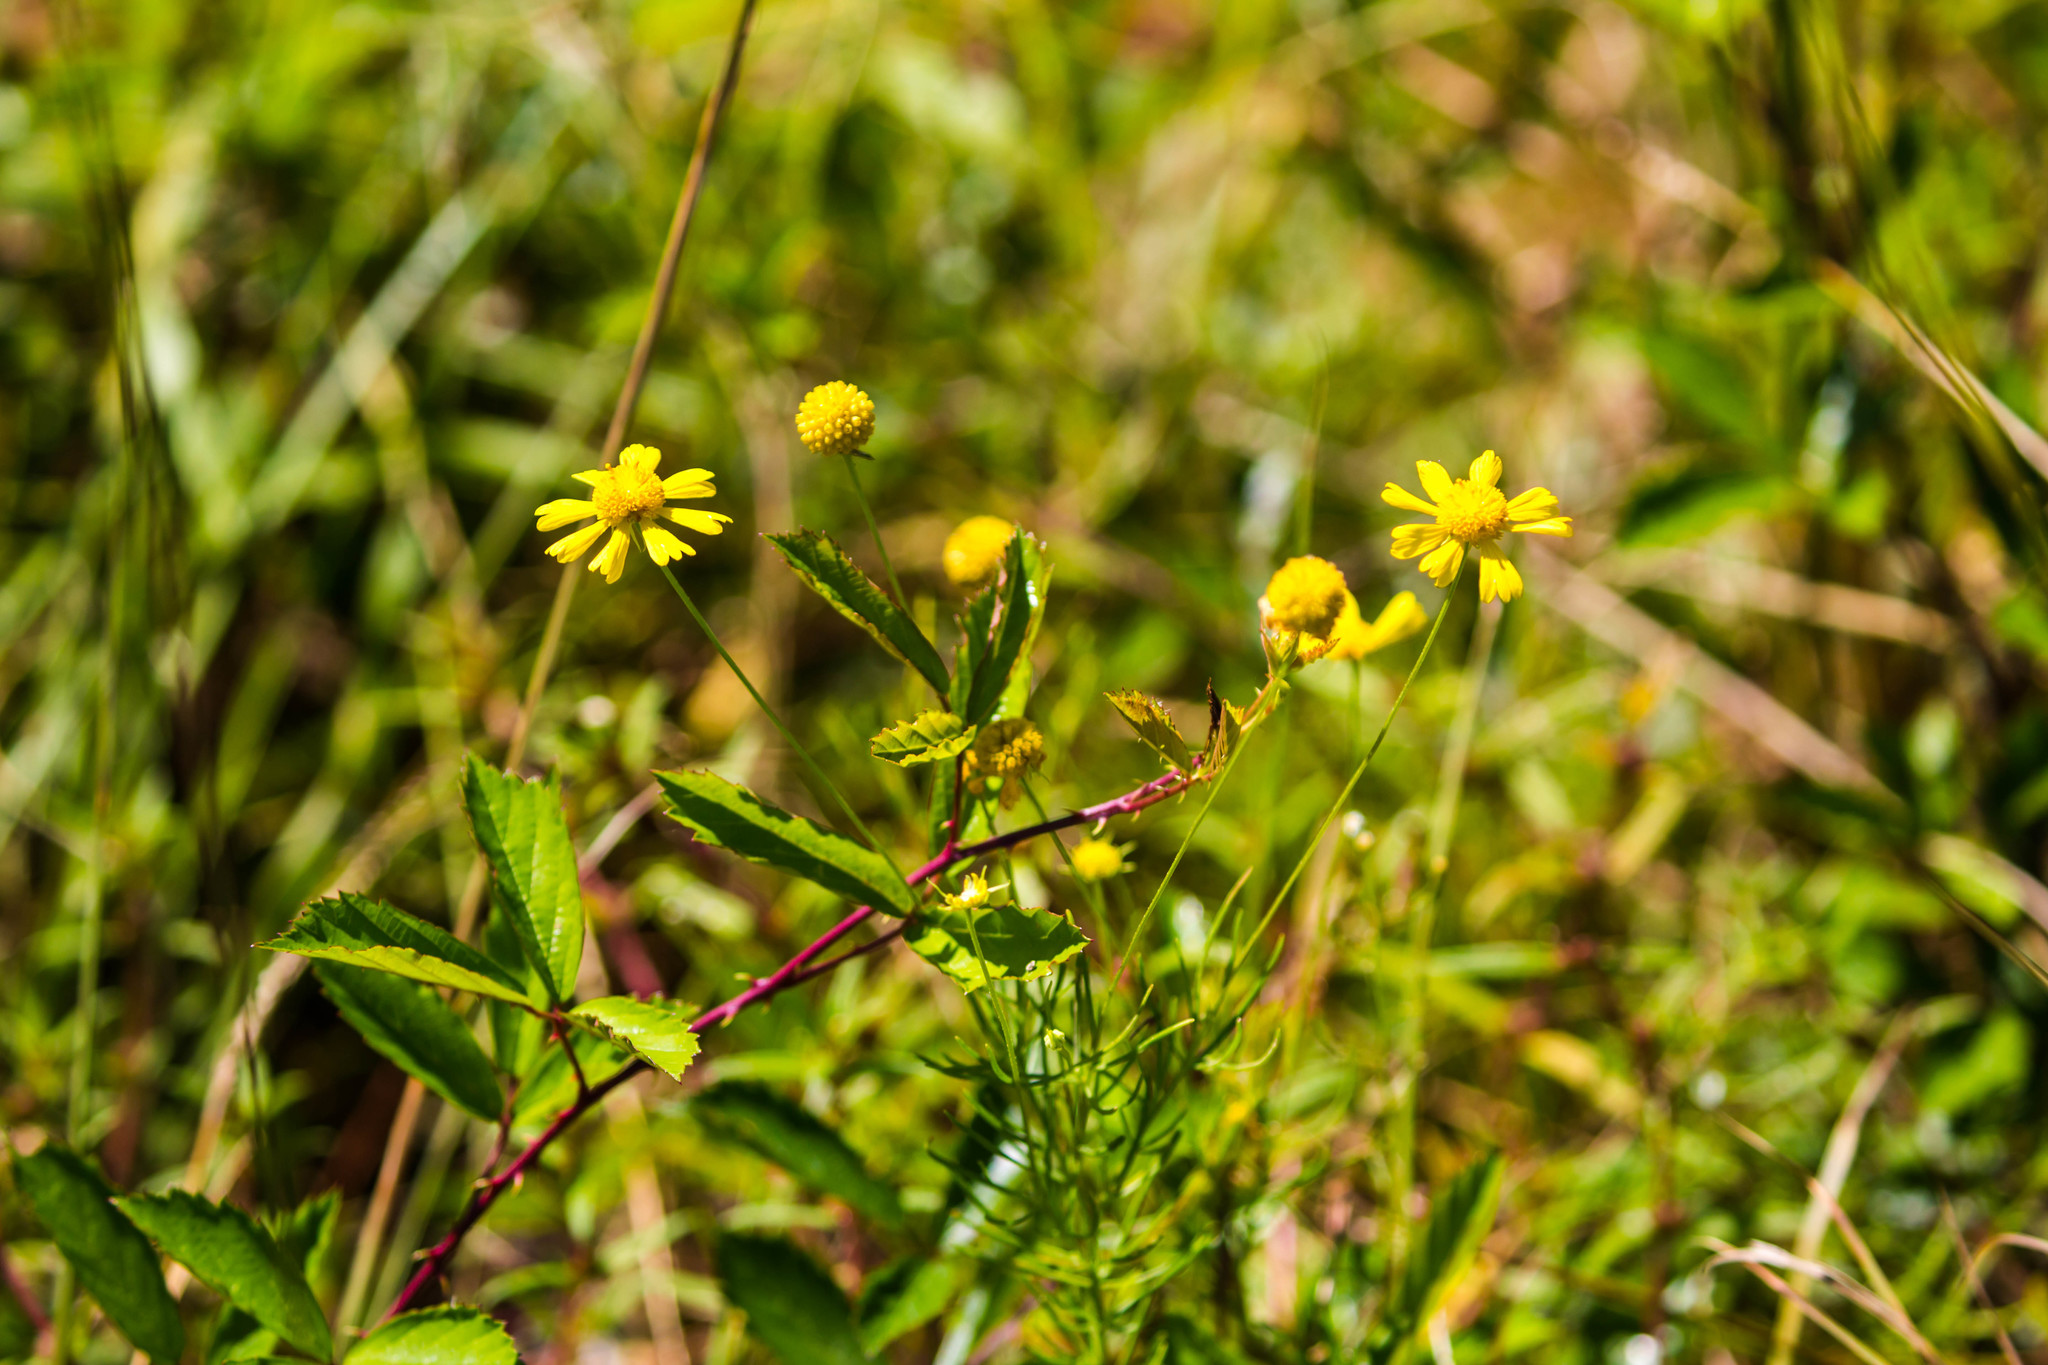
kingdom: Plantae
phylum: Tracheophyta
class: Magnoliopsida
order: Asterales
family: Asteraceae
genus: Balduina
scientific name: Balduina angustifolia
